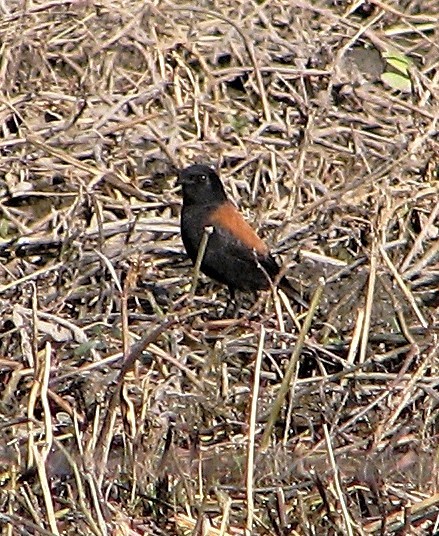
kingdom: Animalia
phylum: Chordata
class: Aves
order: Passeriformes
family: Tyrannidae
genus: Lessonia
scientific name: Lessonia rufa
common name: Austral negrito
